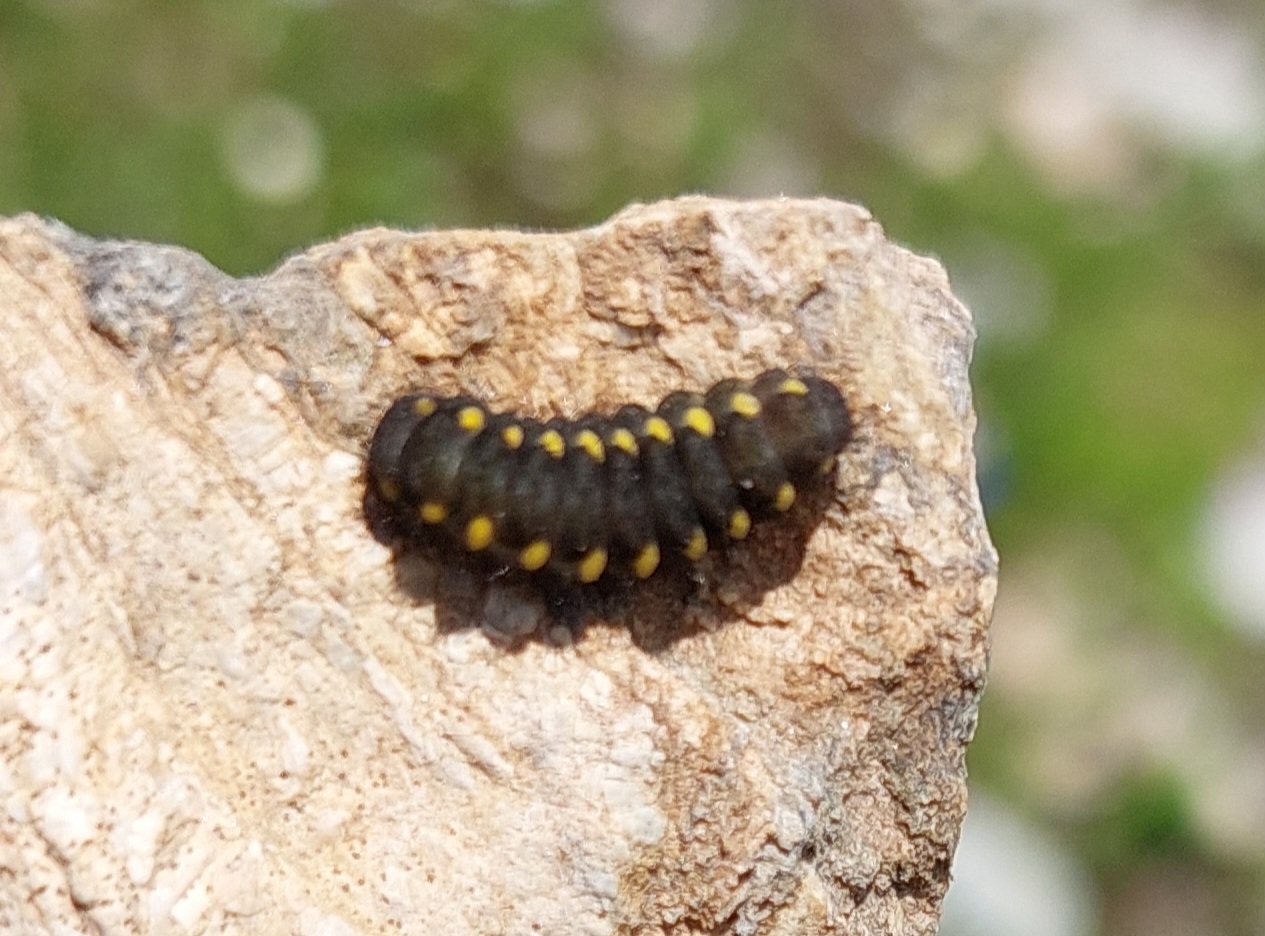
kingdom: Animalia
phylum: Arthropoda
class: Insecta
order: Lepidoptera
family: Zygaenidae
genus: Zygaena
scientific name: Zygaena exulans
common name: Scotch burnet
